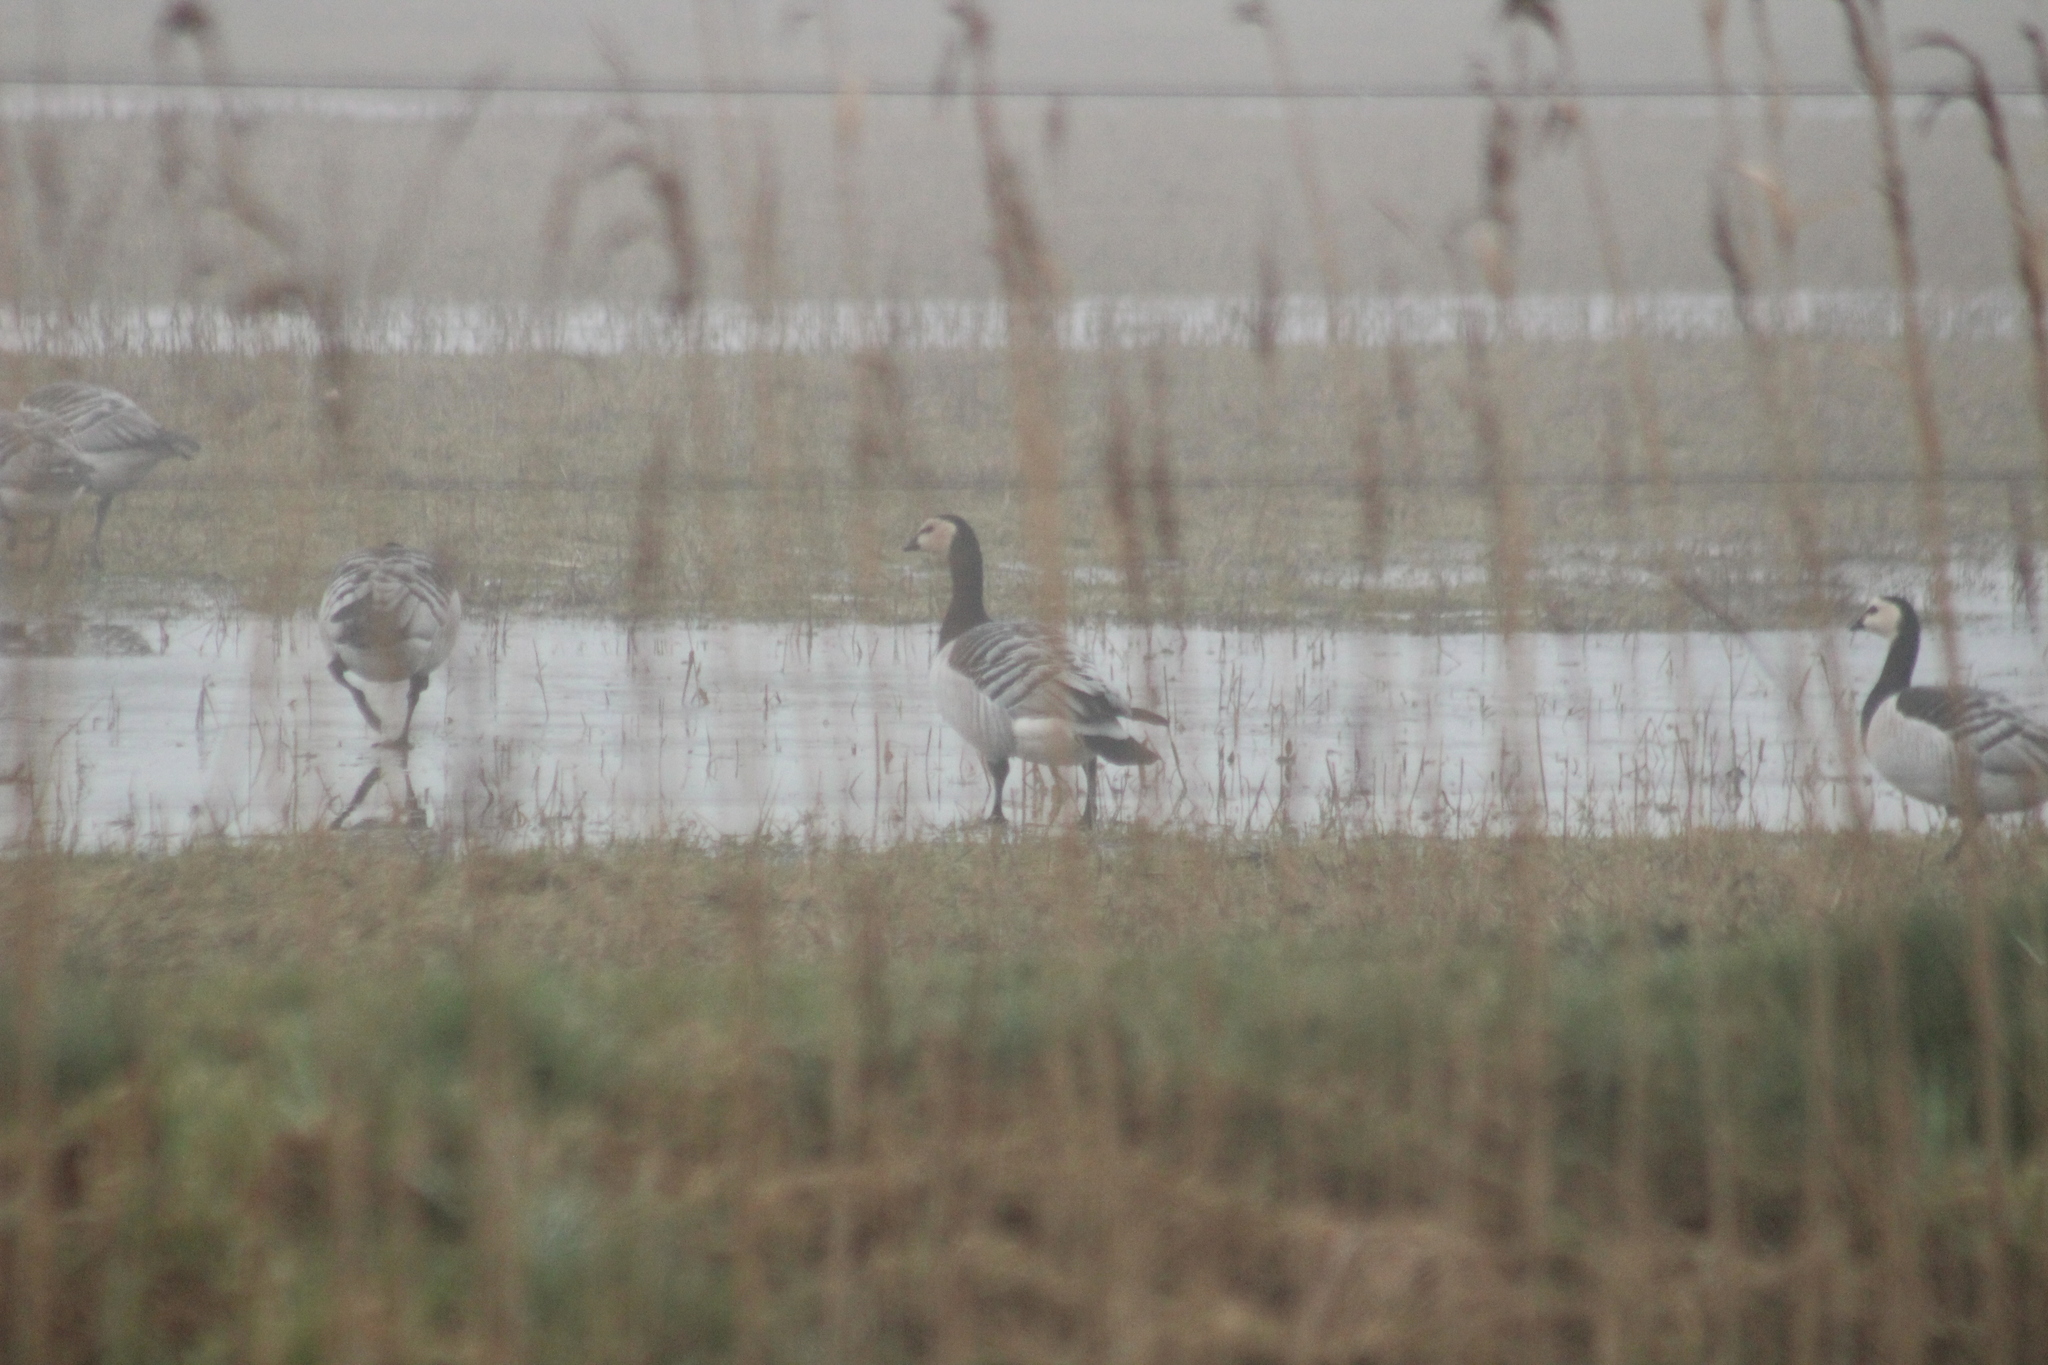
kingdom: Animalia
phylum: Chordata
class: Aves
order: Anseriformes
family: Anatidae
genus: Branta
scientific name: Branta leucopsis
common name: Barnacle goose
